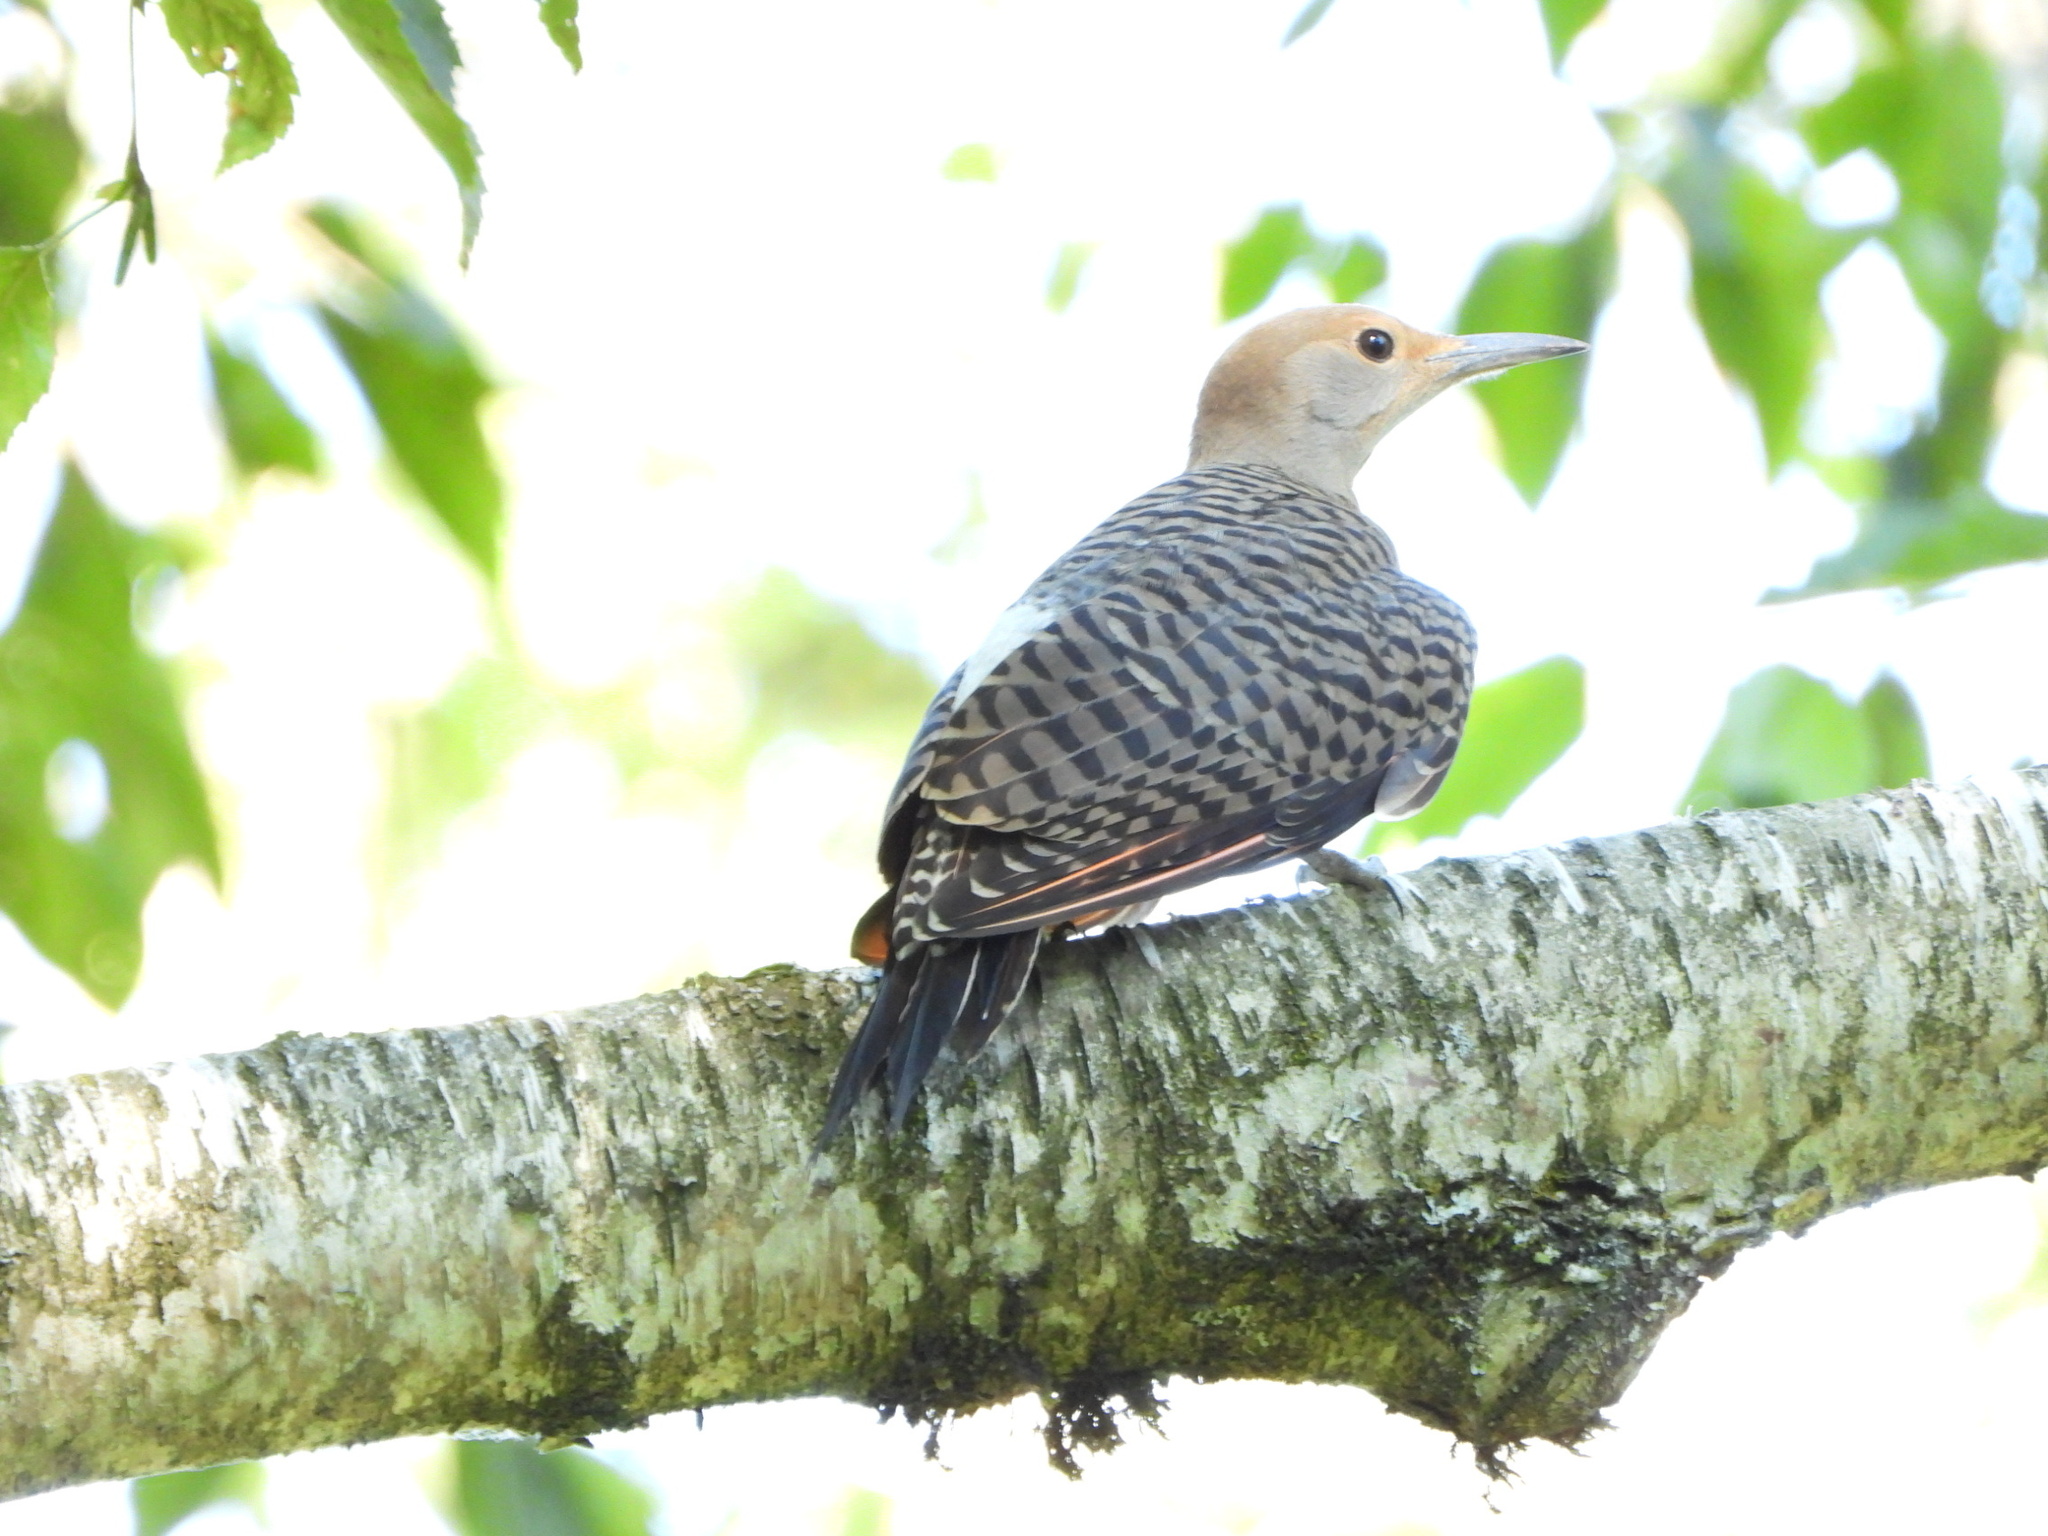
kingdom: Animalia
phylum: Chordata
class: Aves
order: Piciformes
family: Picidae
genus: Colaptes
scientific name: Colaptes auratus
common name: Northern flicker
